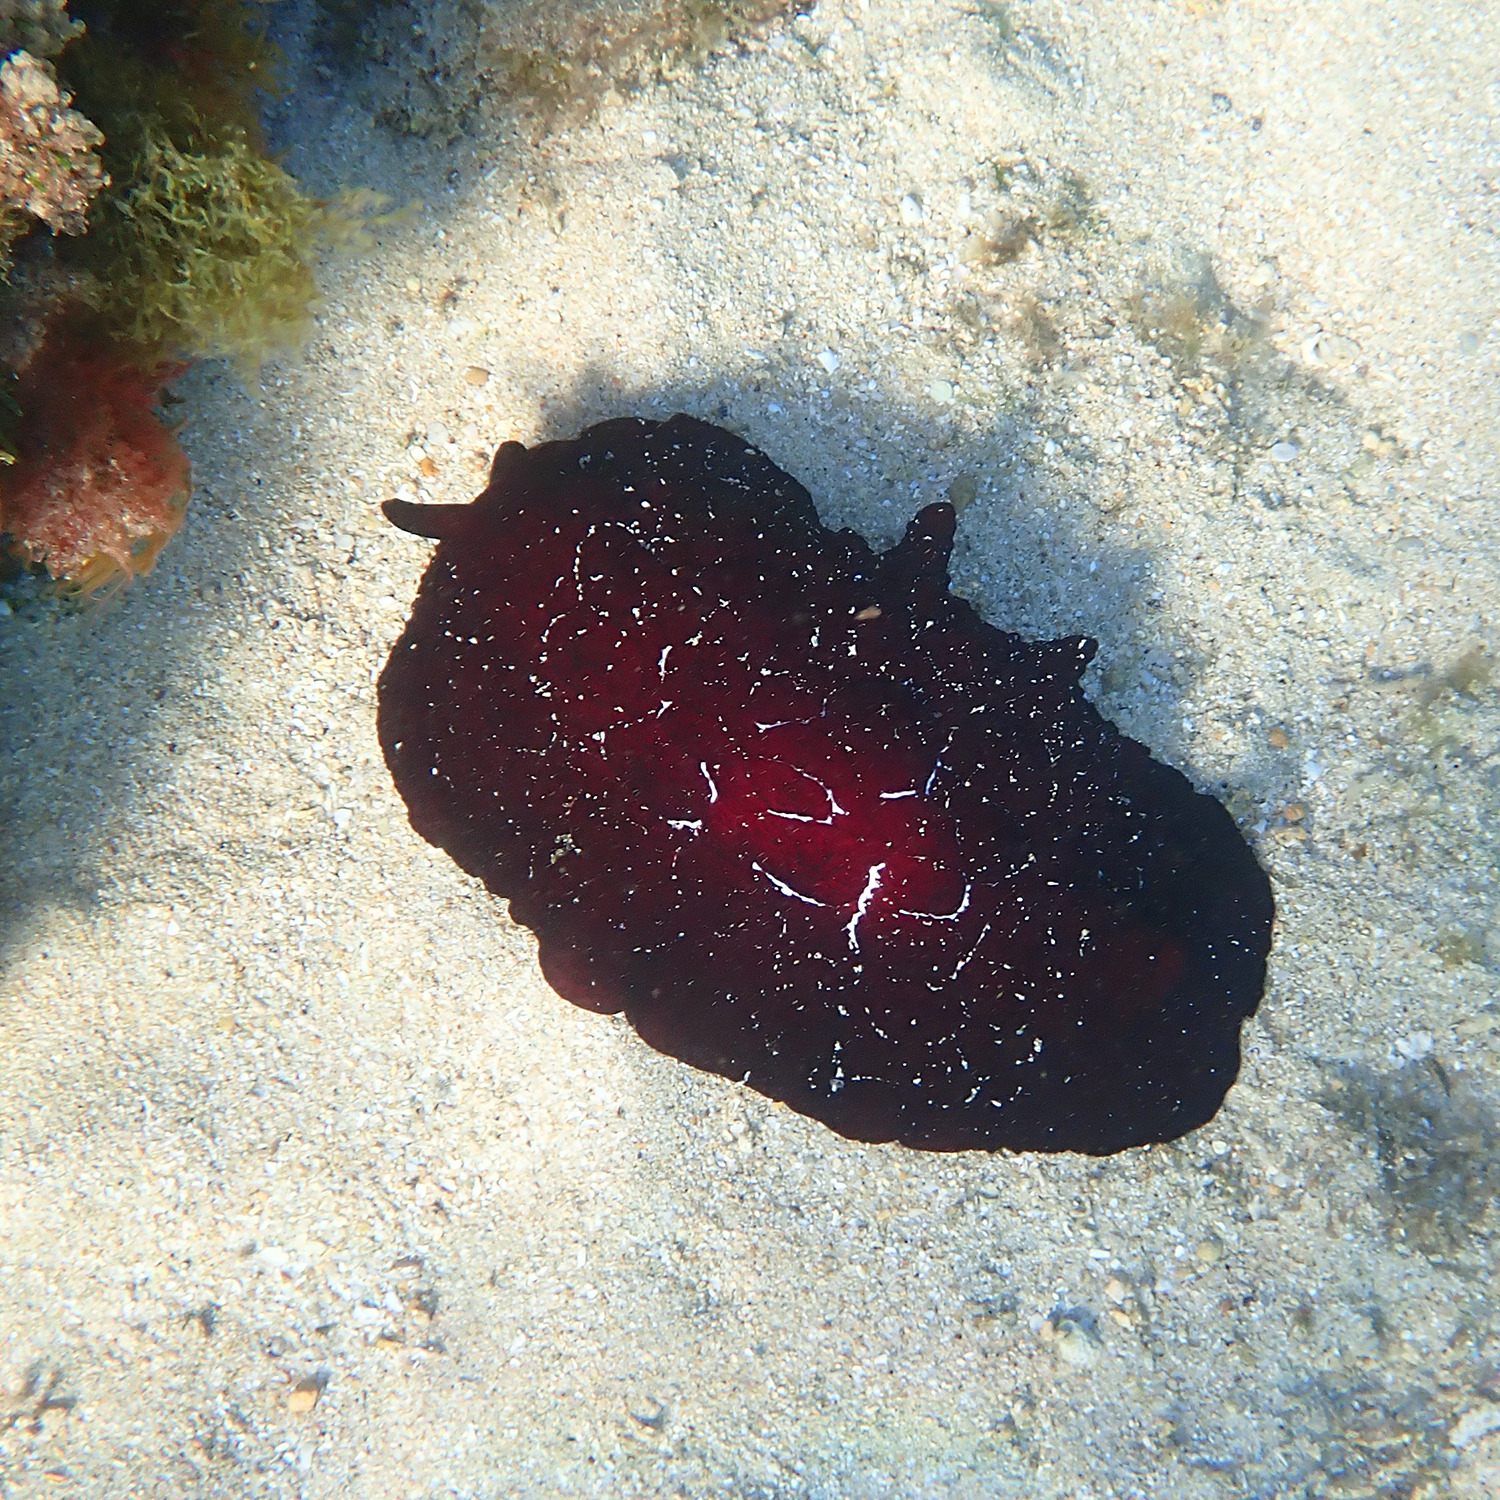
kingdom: Animalia
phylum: Mollusca
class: Gastropoda
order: Pleurobranchida
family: Pleurobranchidae
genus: Pleurobranchus
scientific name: Pleurobranchus forskalii
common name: Forskal's side-gilled sea slug
